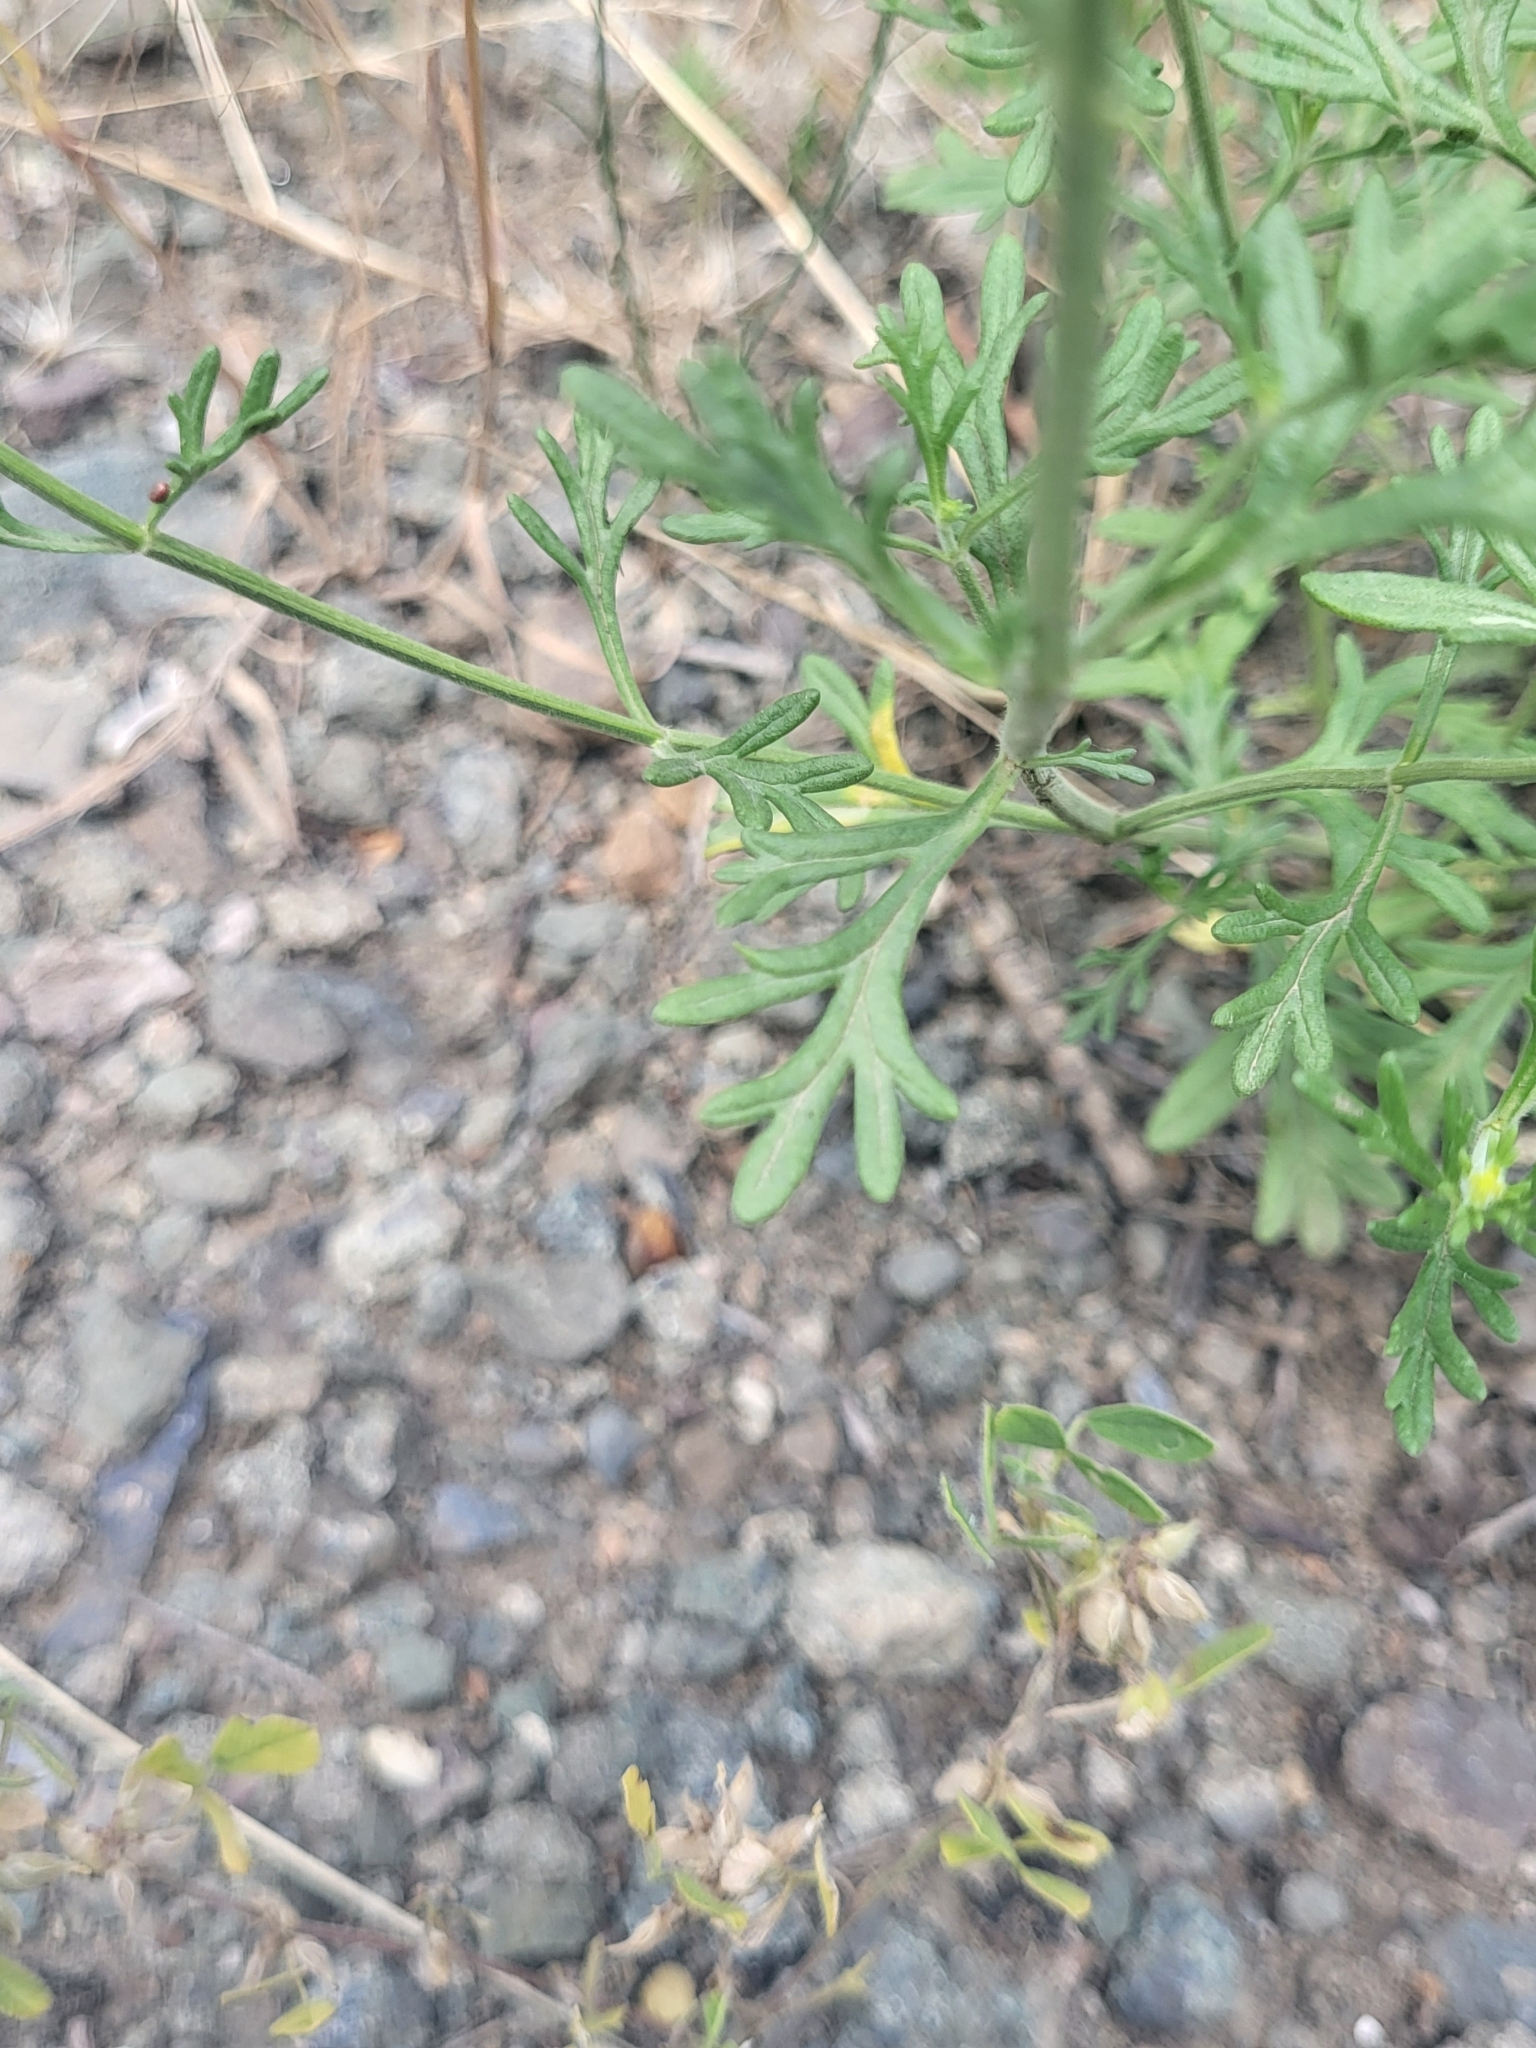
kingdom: Plantae
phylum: Tracheophyta
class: Magnoliopsida
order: Lamiales
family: Lamiaceae
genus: Teucrium
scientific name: Teucrium orientale
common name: Oriental germander
